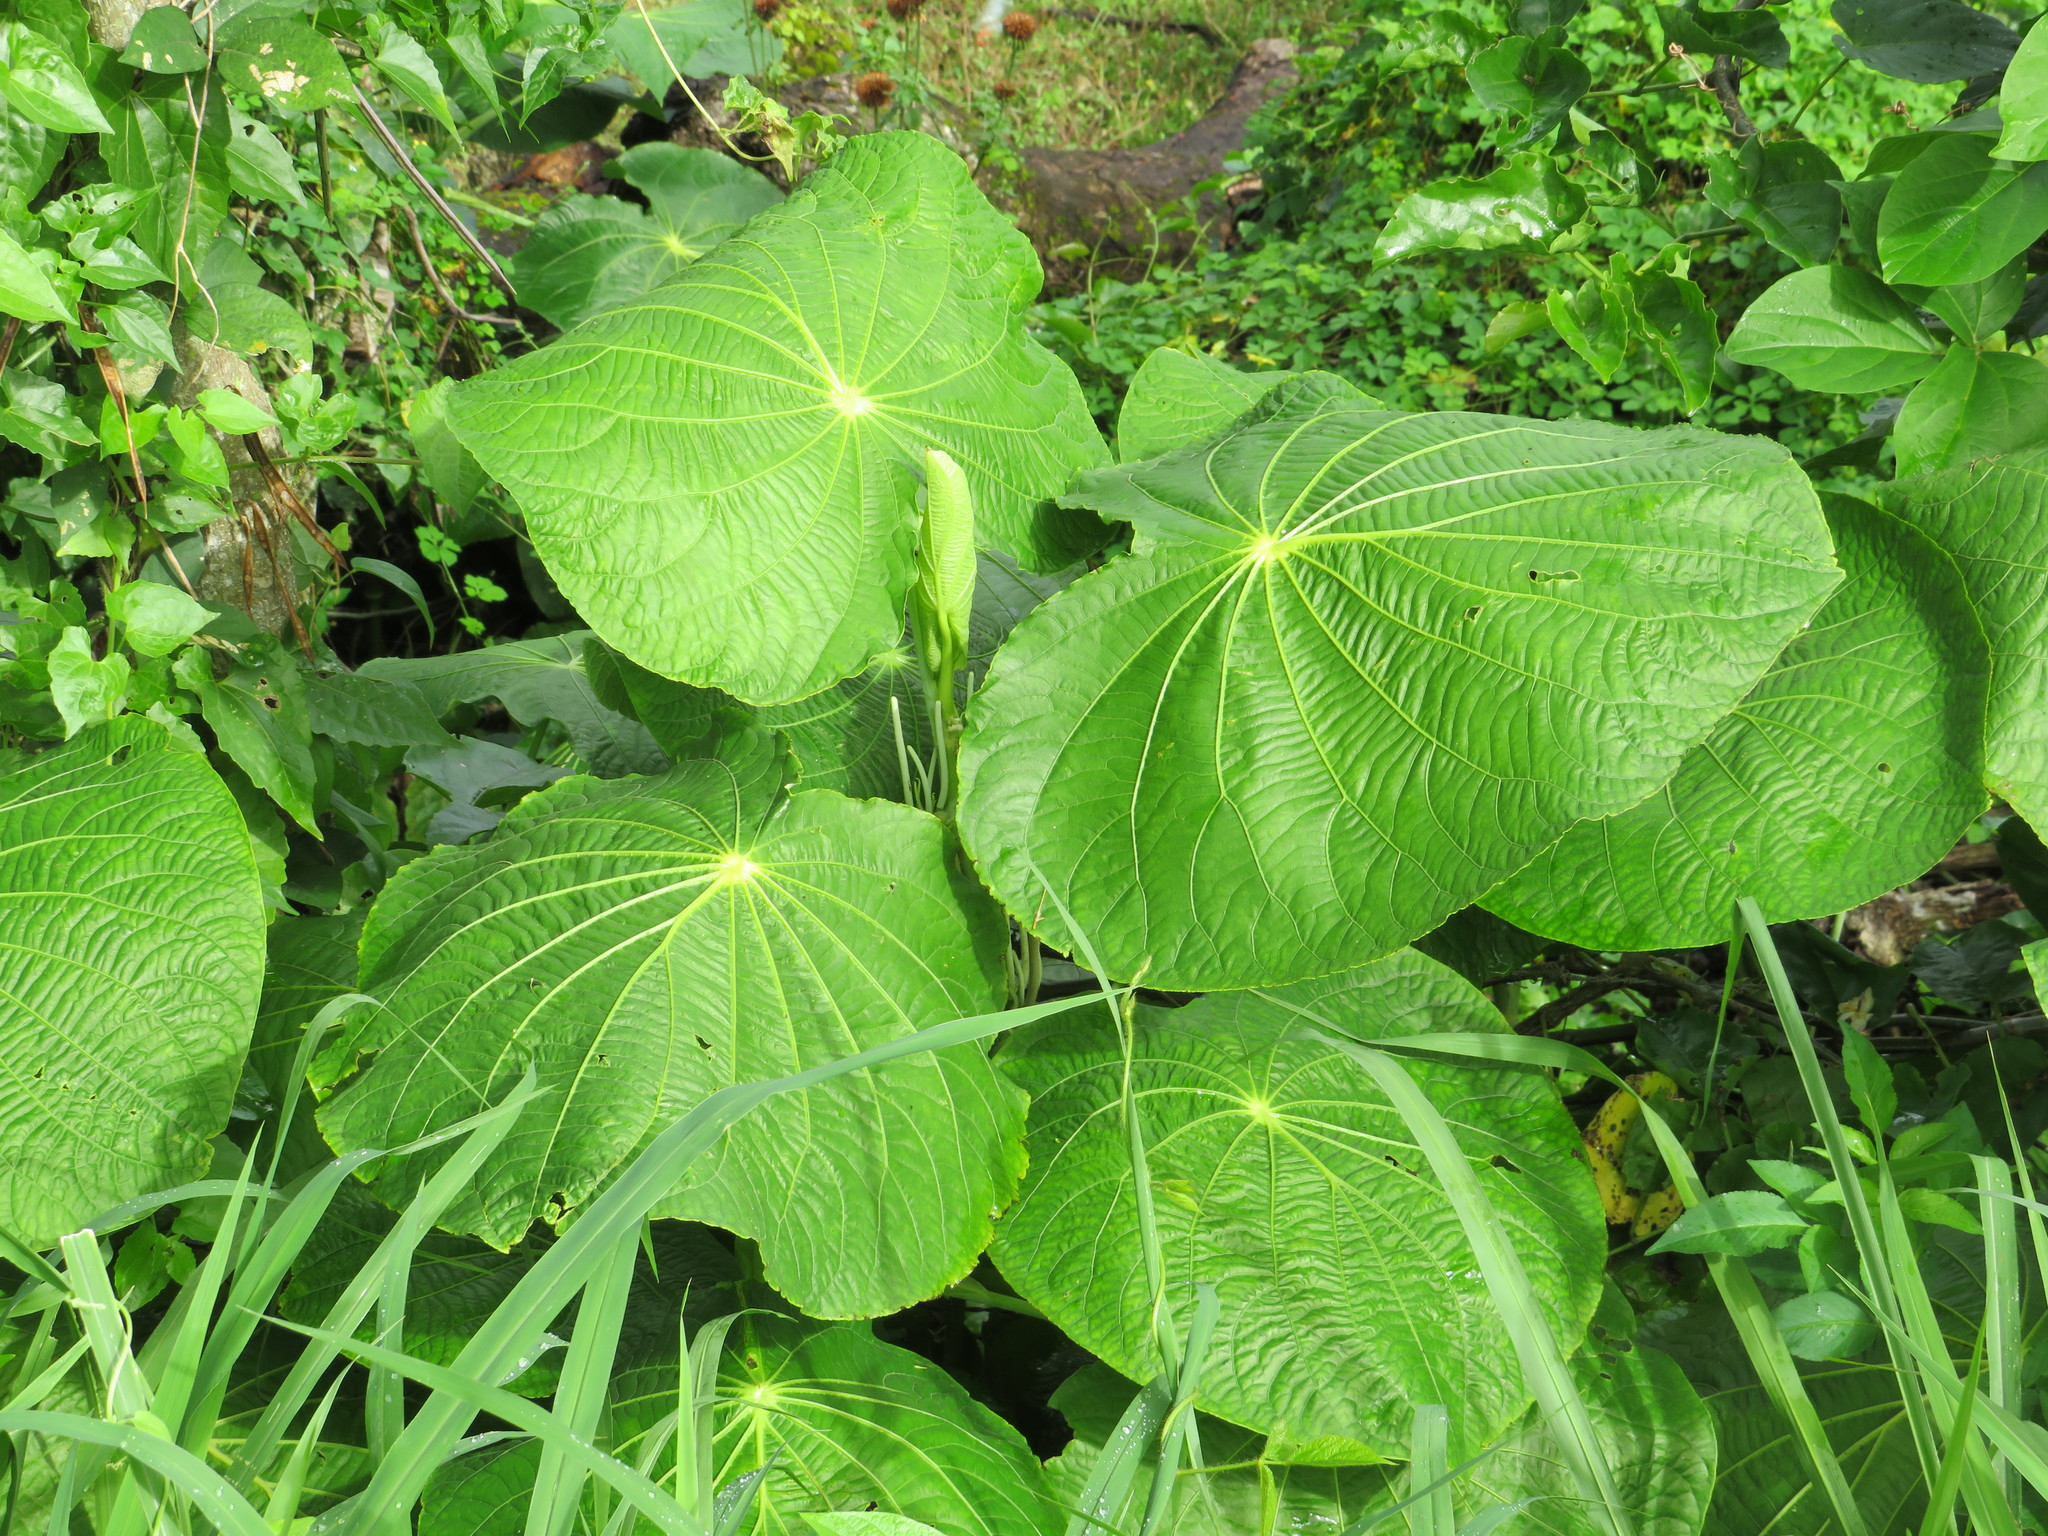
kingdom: Plantae
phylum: Tracheophyta
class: Magnoliopsida
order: Piperales
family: Piperaceae
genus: Piper
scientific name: Piper peltatum
